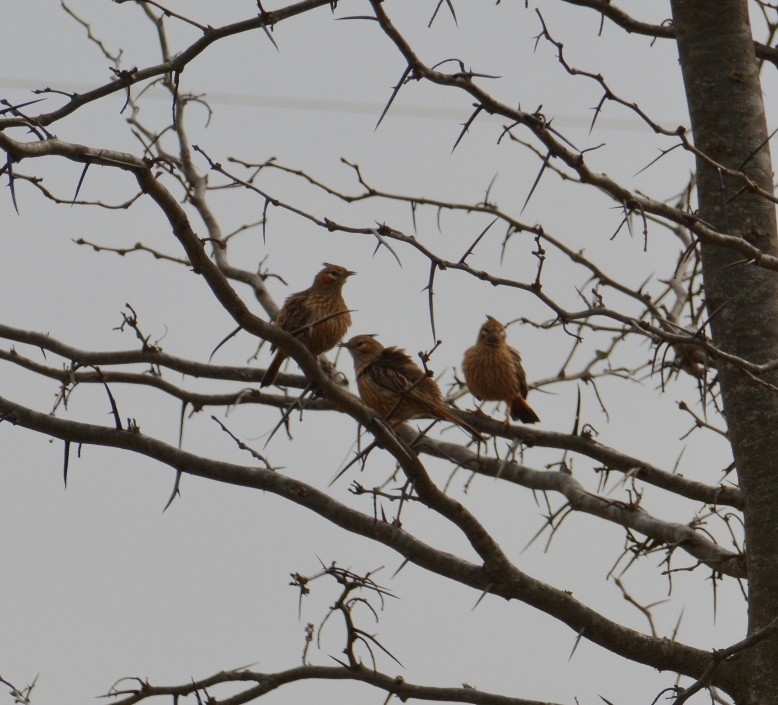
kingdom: Animalia
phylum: Chordata
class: Aves
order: Passeriformes
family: Furnariidae
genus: Coryphistera
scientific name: Coryphistera alaudina
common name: Lark-like brushrunner
